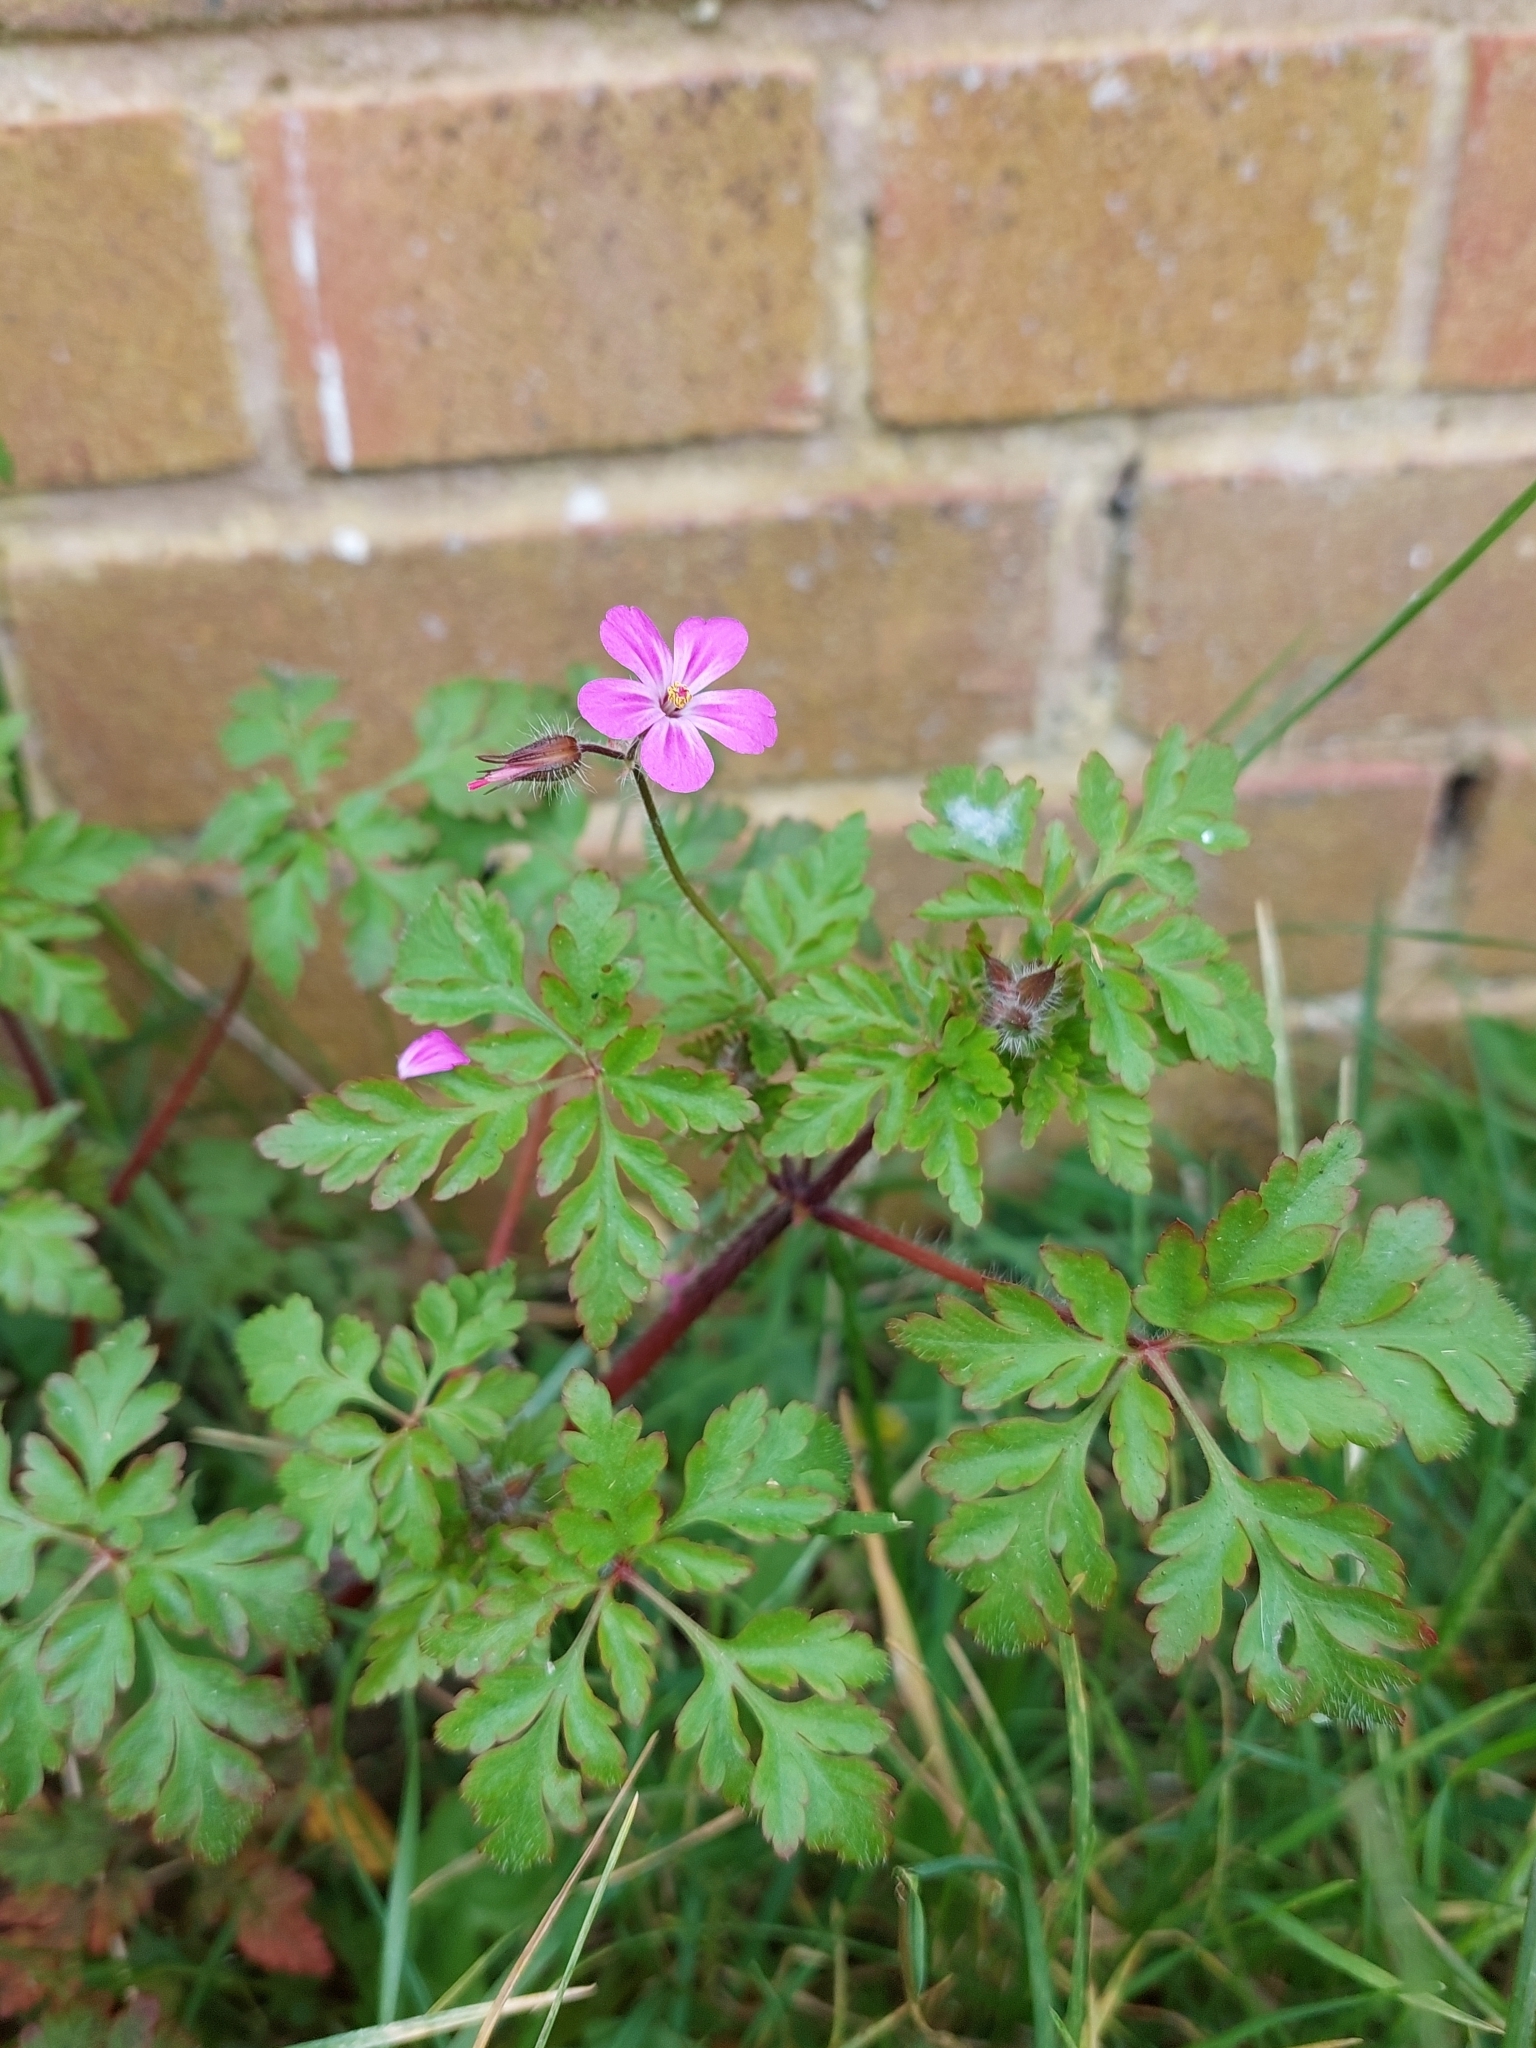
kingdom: Plantae
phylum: Tracheophyta
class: Magnoliopsida
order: Geraniales
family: Geraniaceae
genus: Geranium
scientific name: Geranium robertianum
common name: Herb-robert
